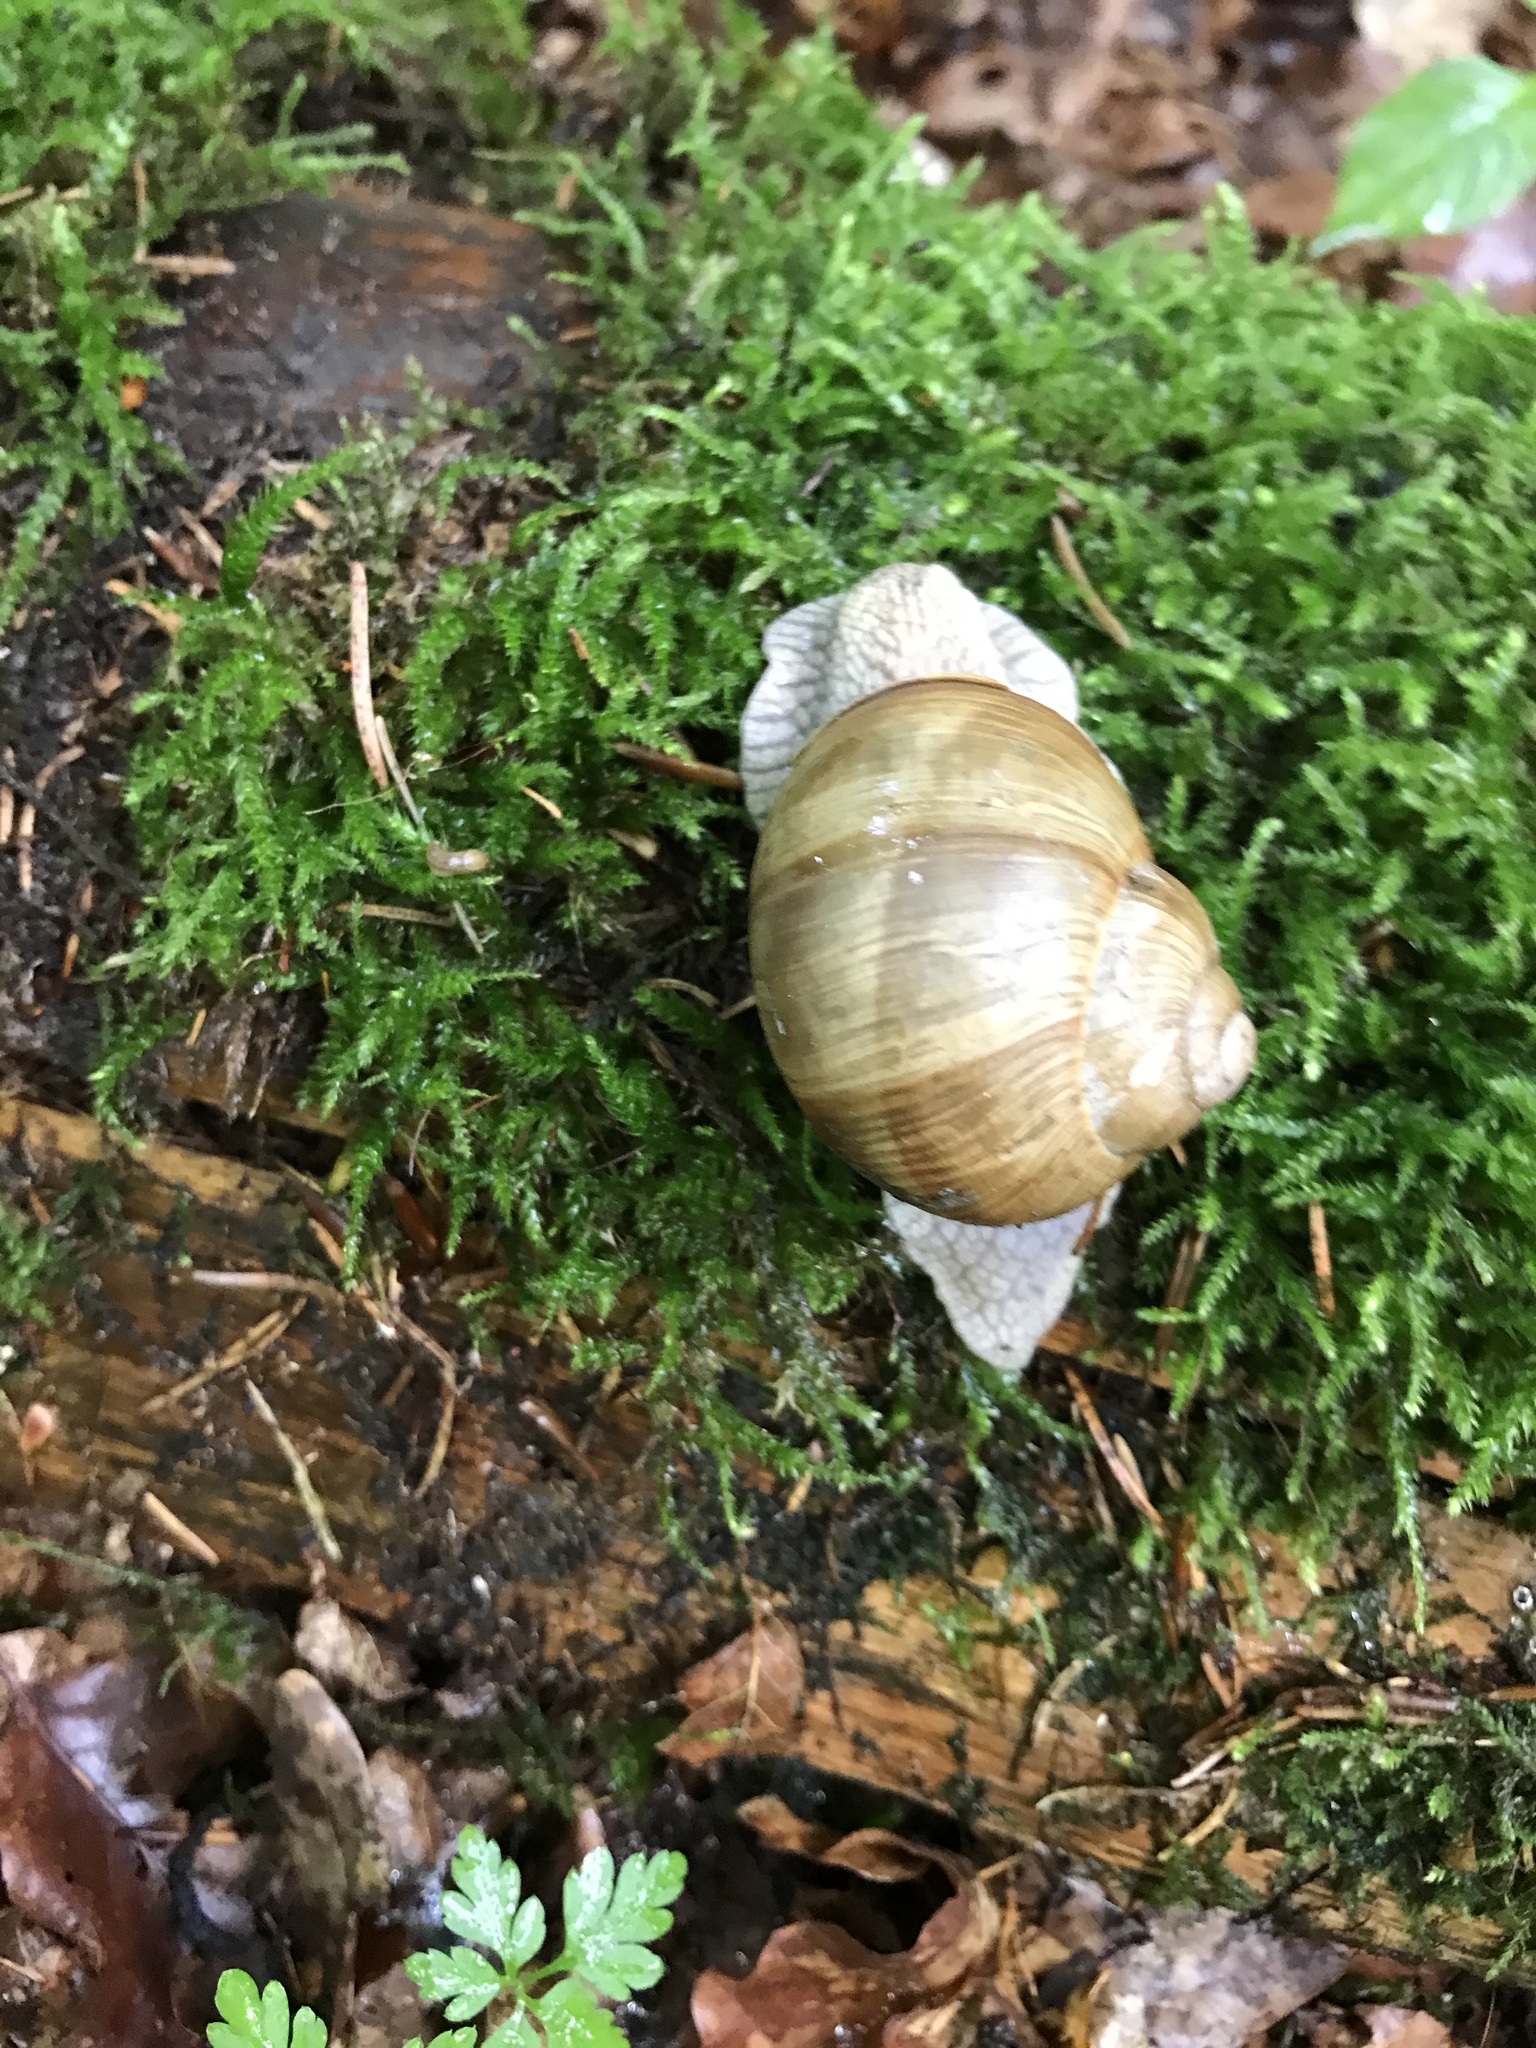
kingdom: Animalia
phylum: Mollusca
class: Gastropoda
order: Stylommatophora
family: Helicidae
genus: Helix
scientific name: Helix pomatia
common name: Roman snail
